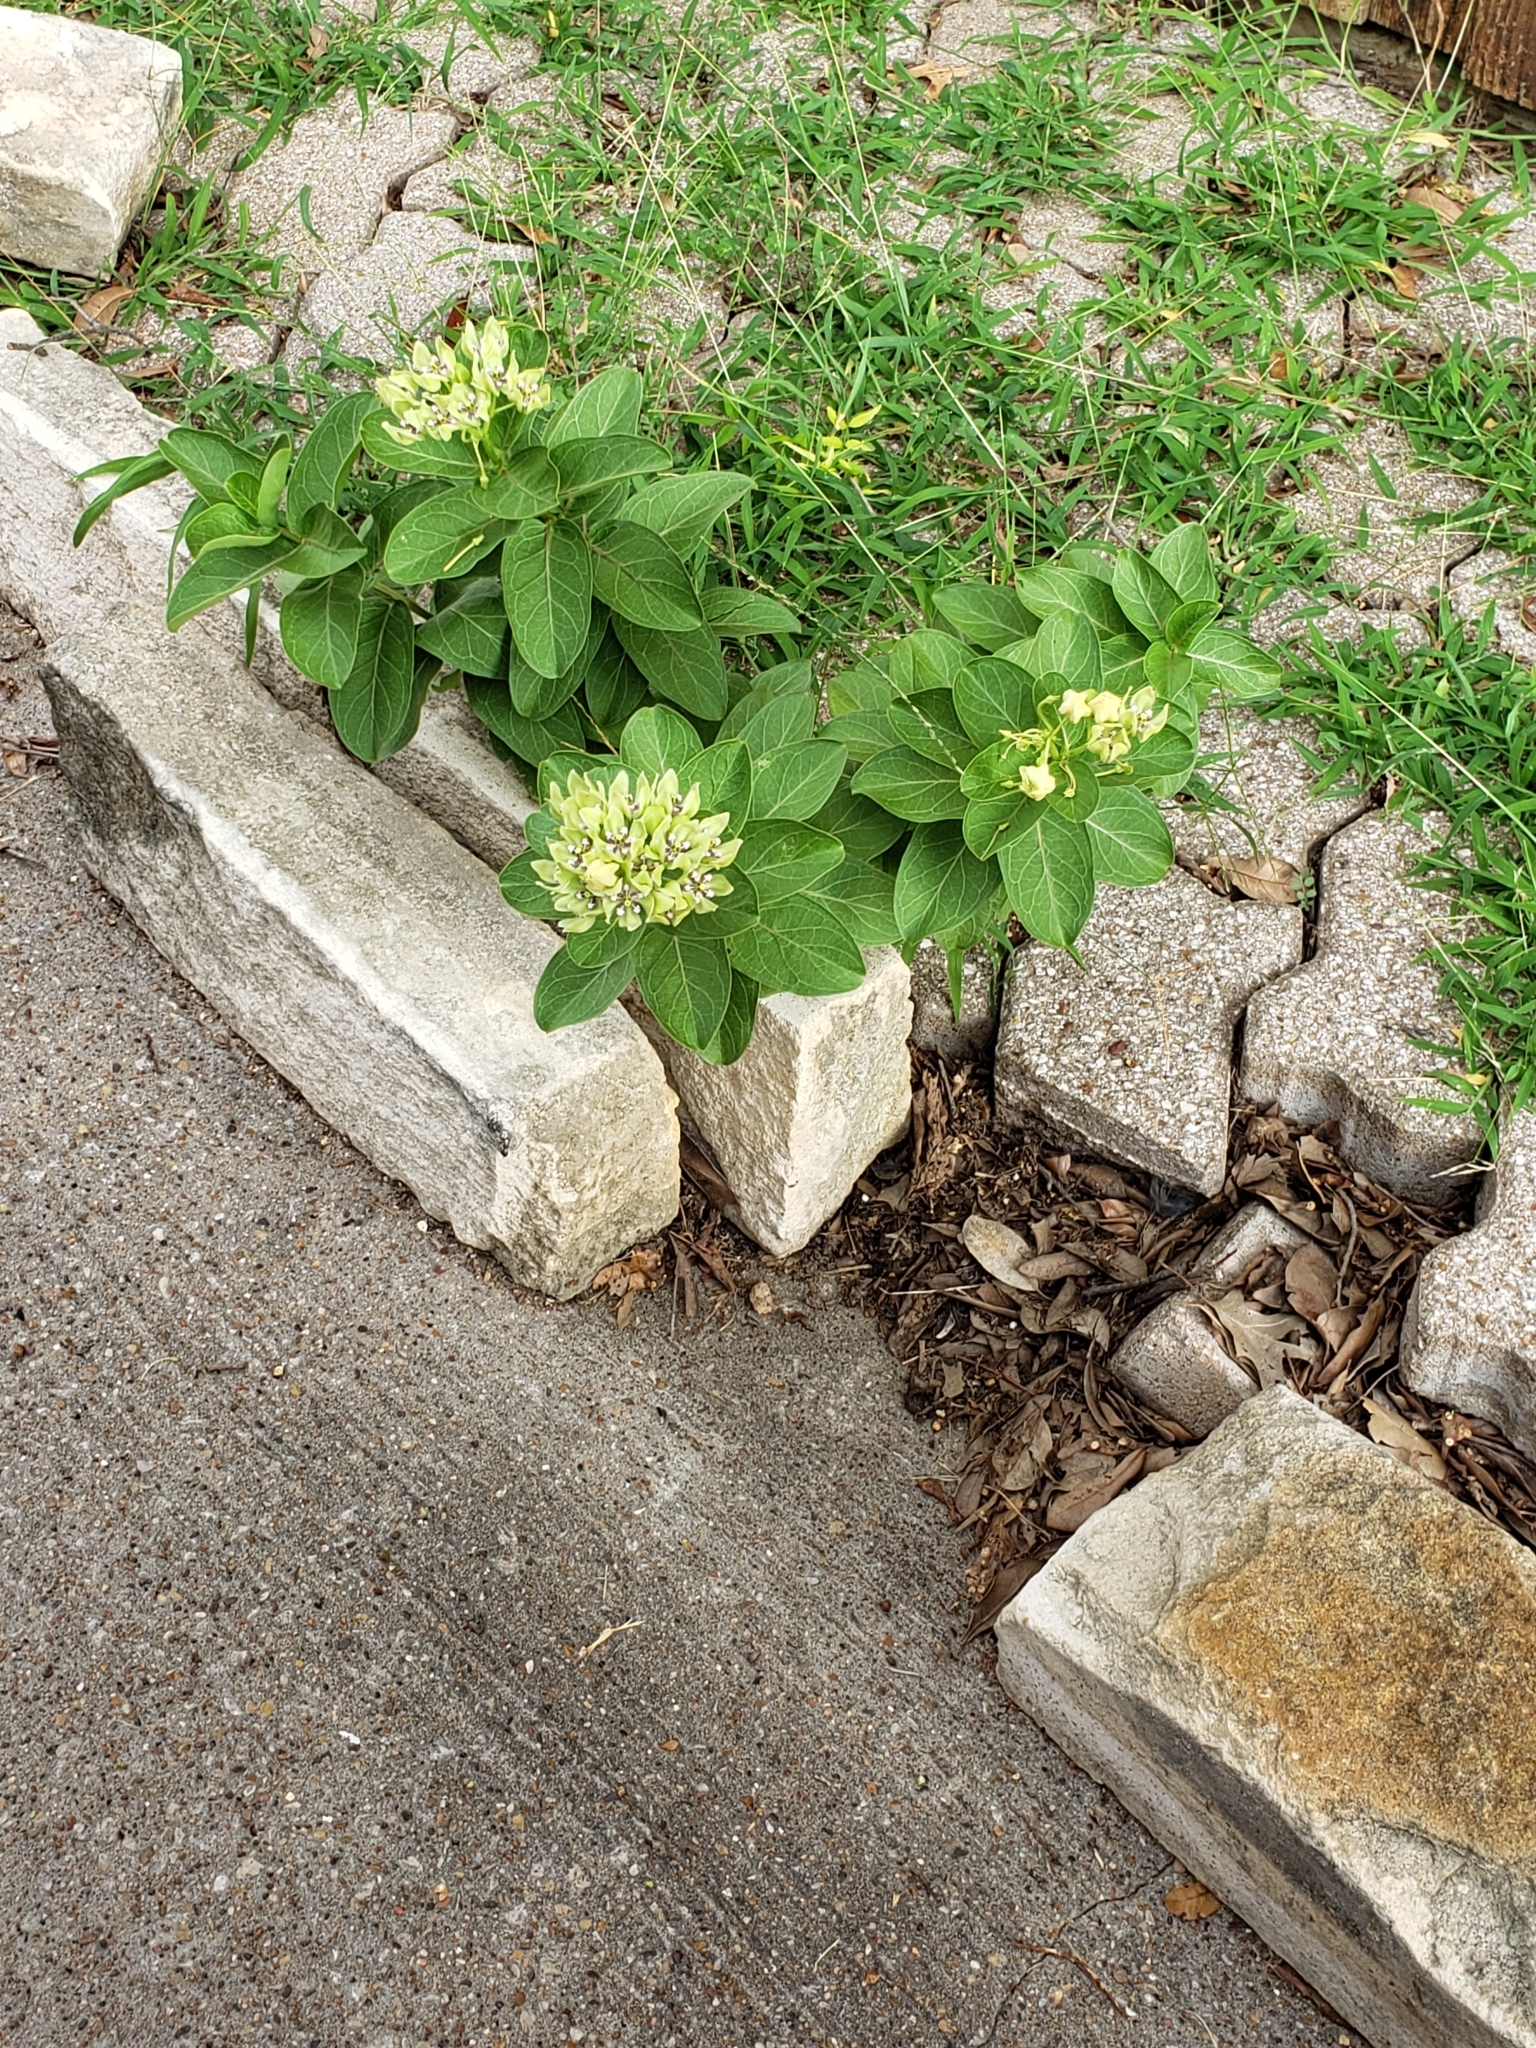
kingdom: Plantae
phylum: Tracheophyta
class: Magnoliopsida
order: Gentianales
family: Apocynaceae
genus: Asclepias
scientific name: Asclepias viridis
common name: Antelope-horns
